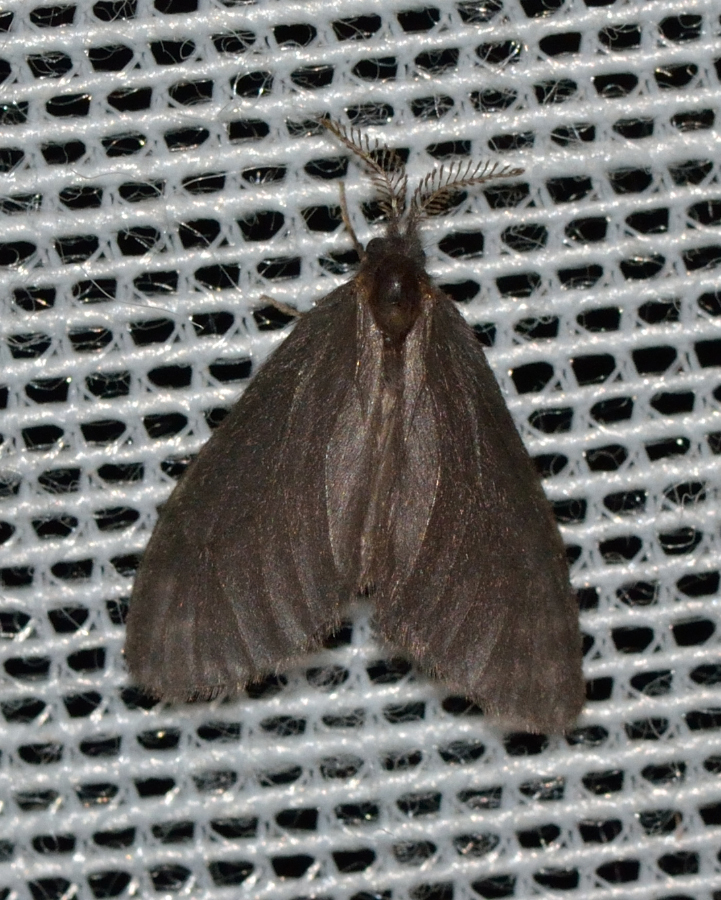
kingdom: Animalia
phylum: Arthropoda
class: Insecta
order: Lepidoptera
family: Psychidae
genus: Sterrhopterix
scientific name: Sterrhopterix fusca
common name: Brown sweep
